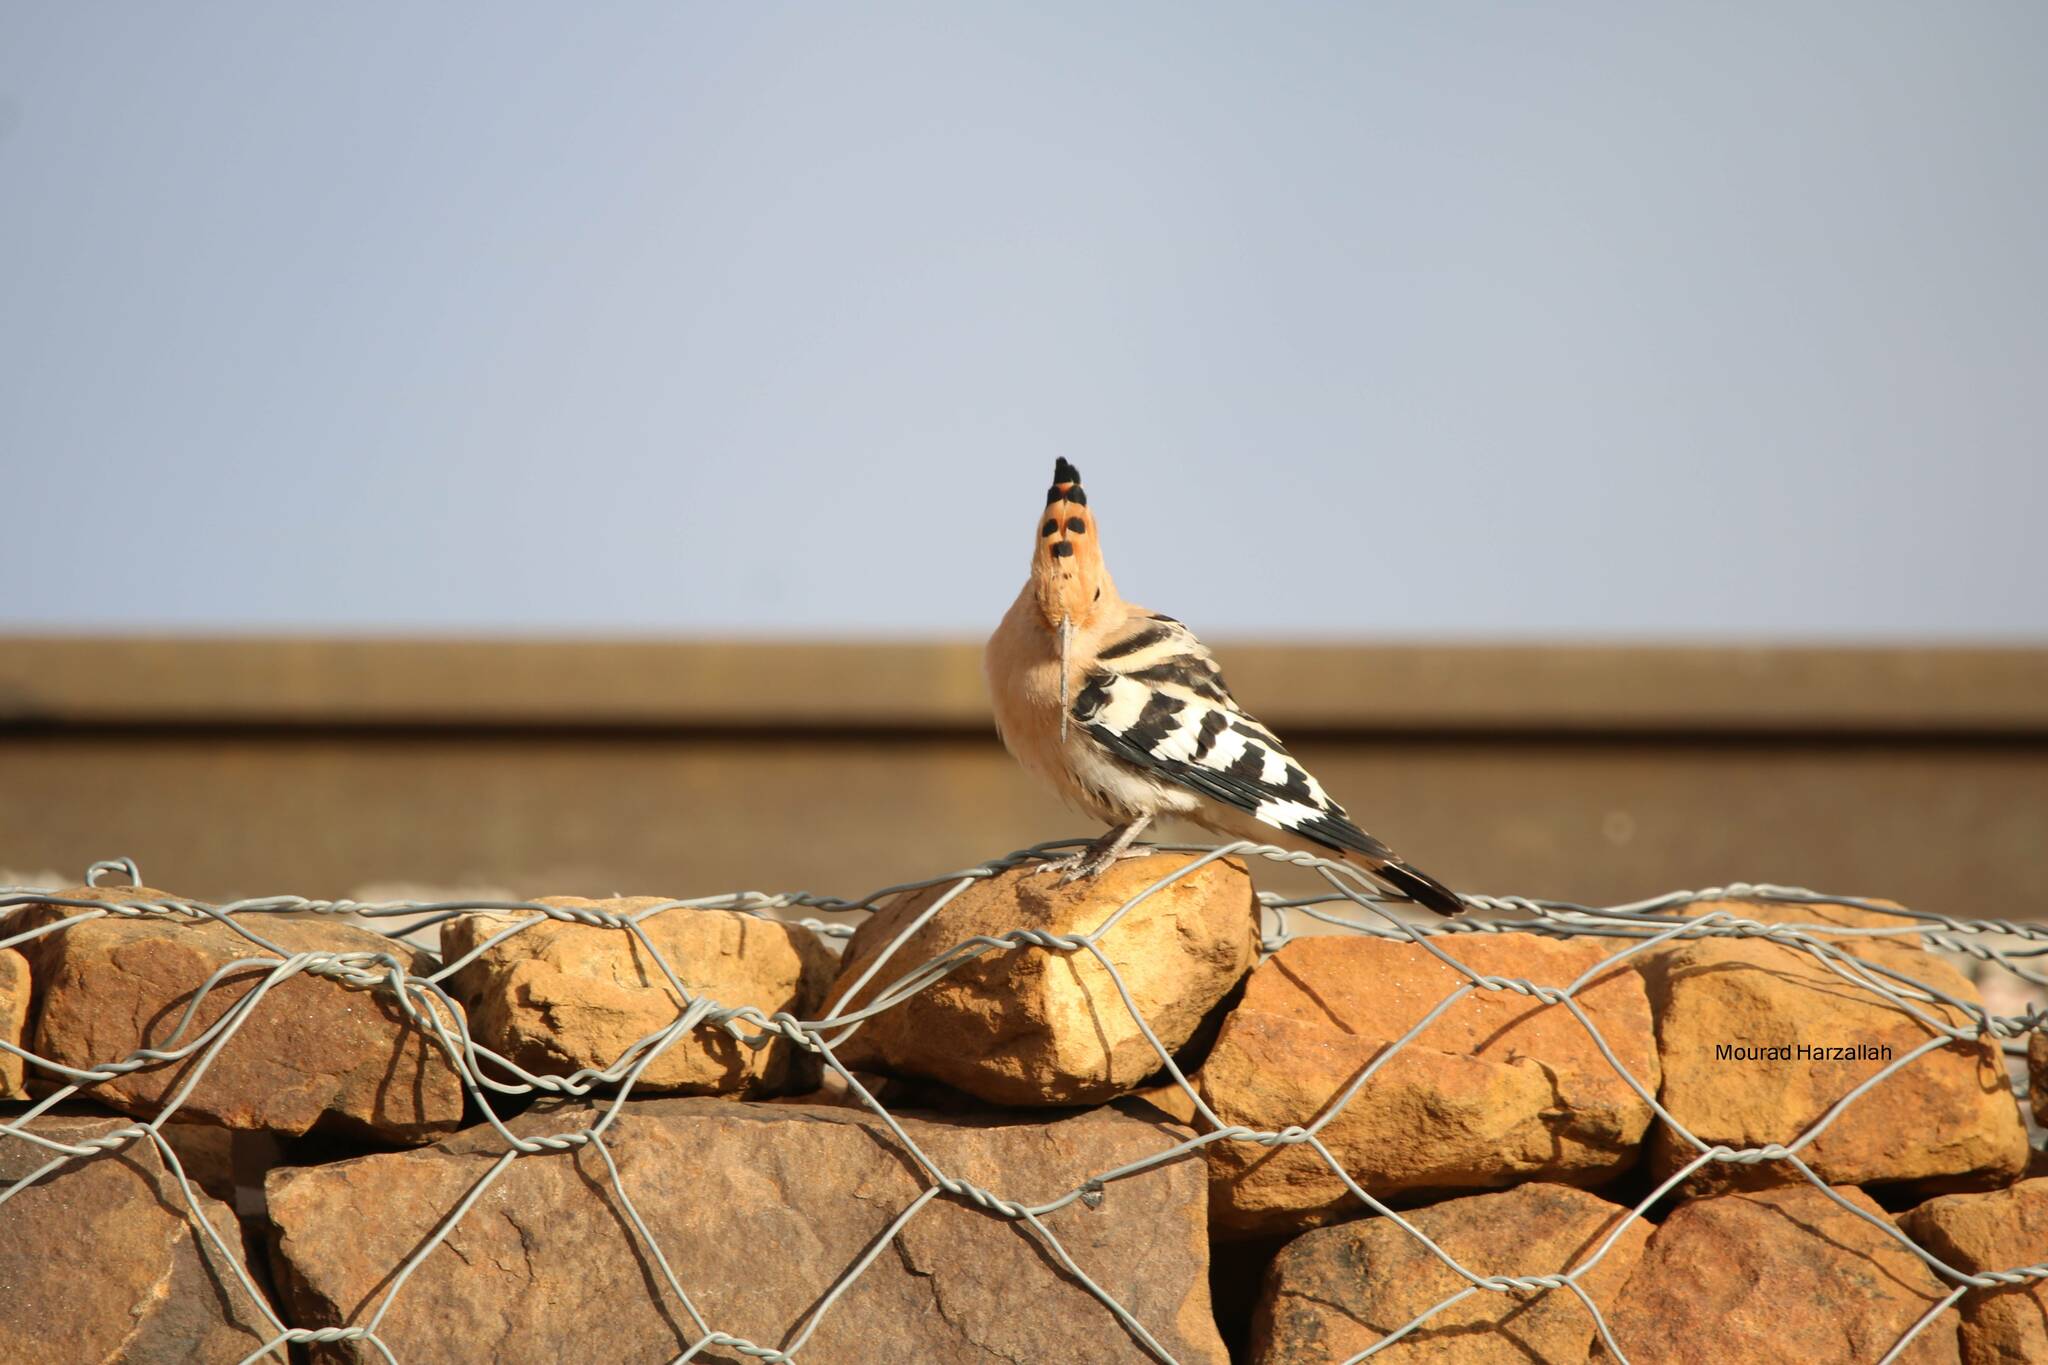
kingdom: Animalia
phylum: Chordata
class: Aves
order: Bucerotiformes
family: Upupidae
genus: Upupa
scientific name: Upupa epops
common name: Eurasian hoopoe
